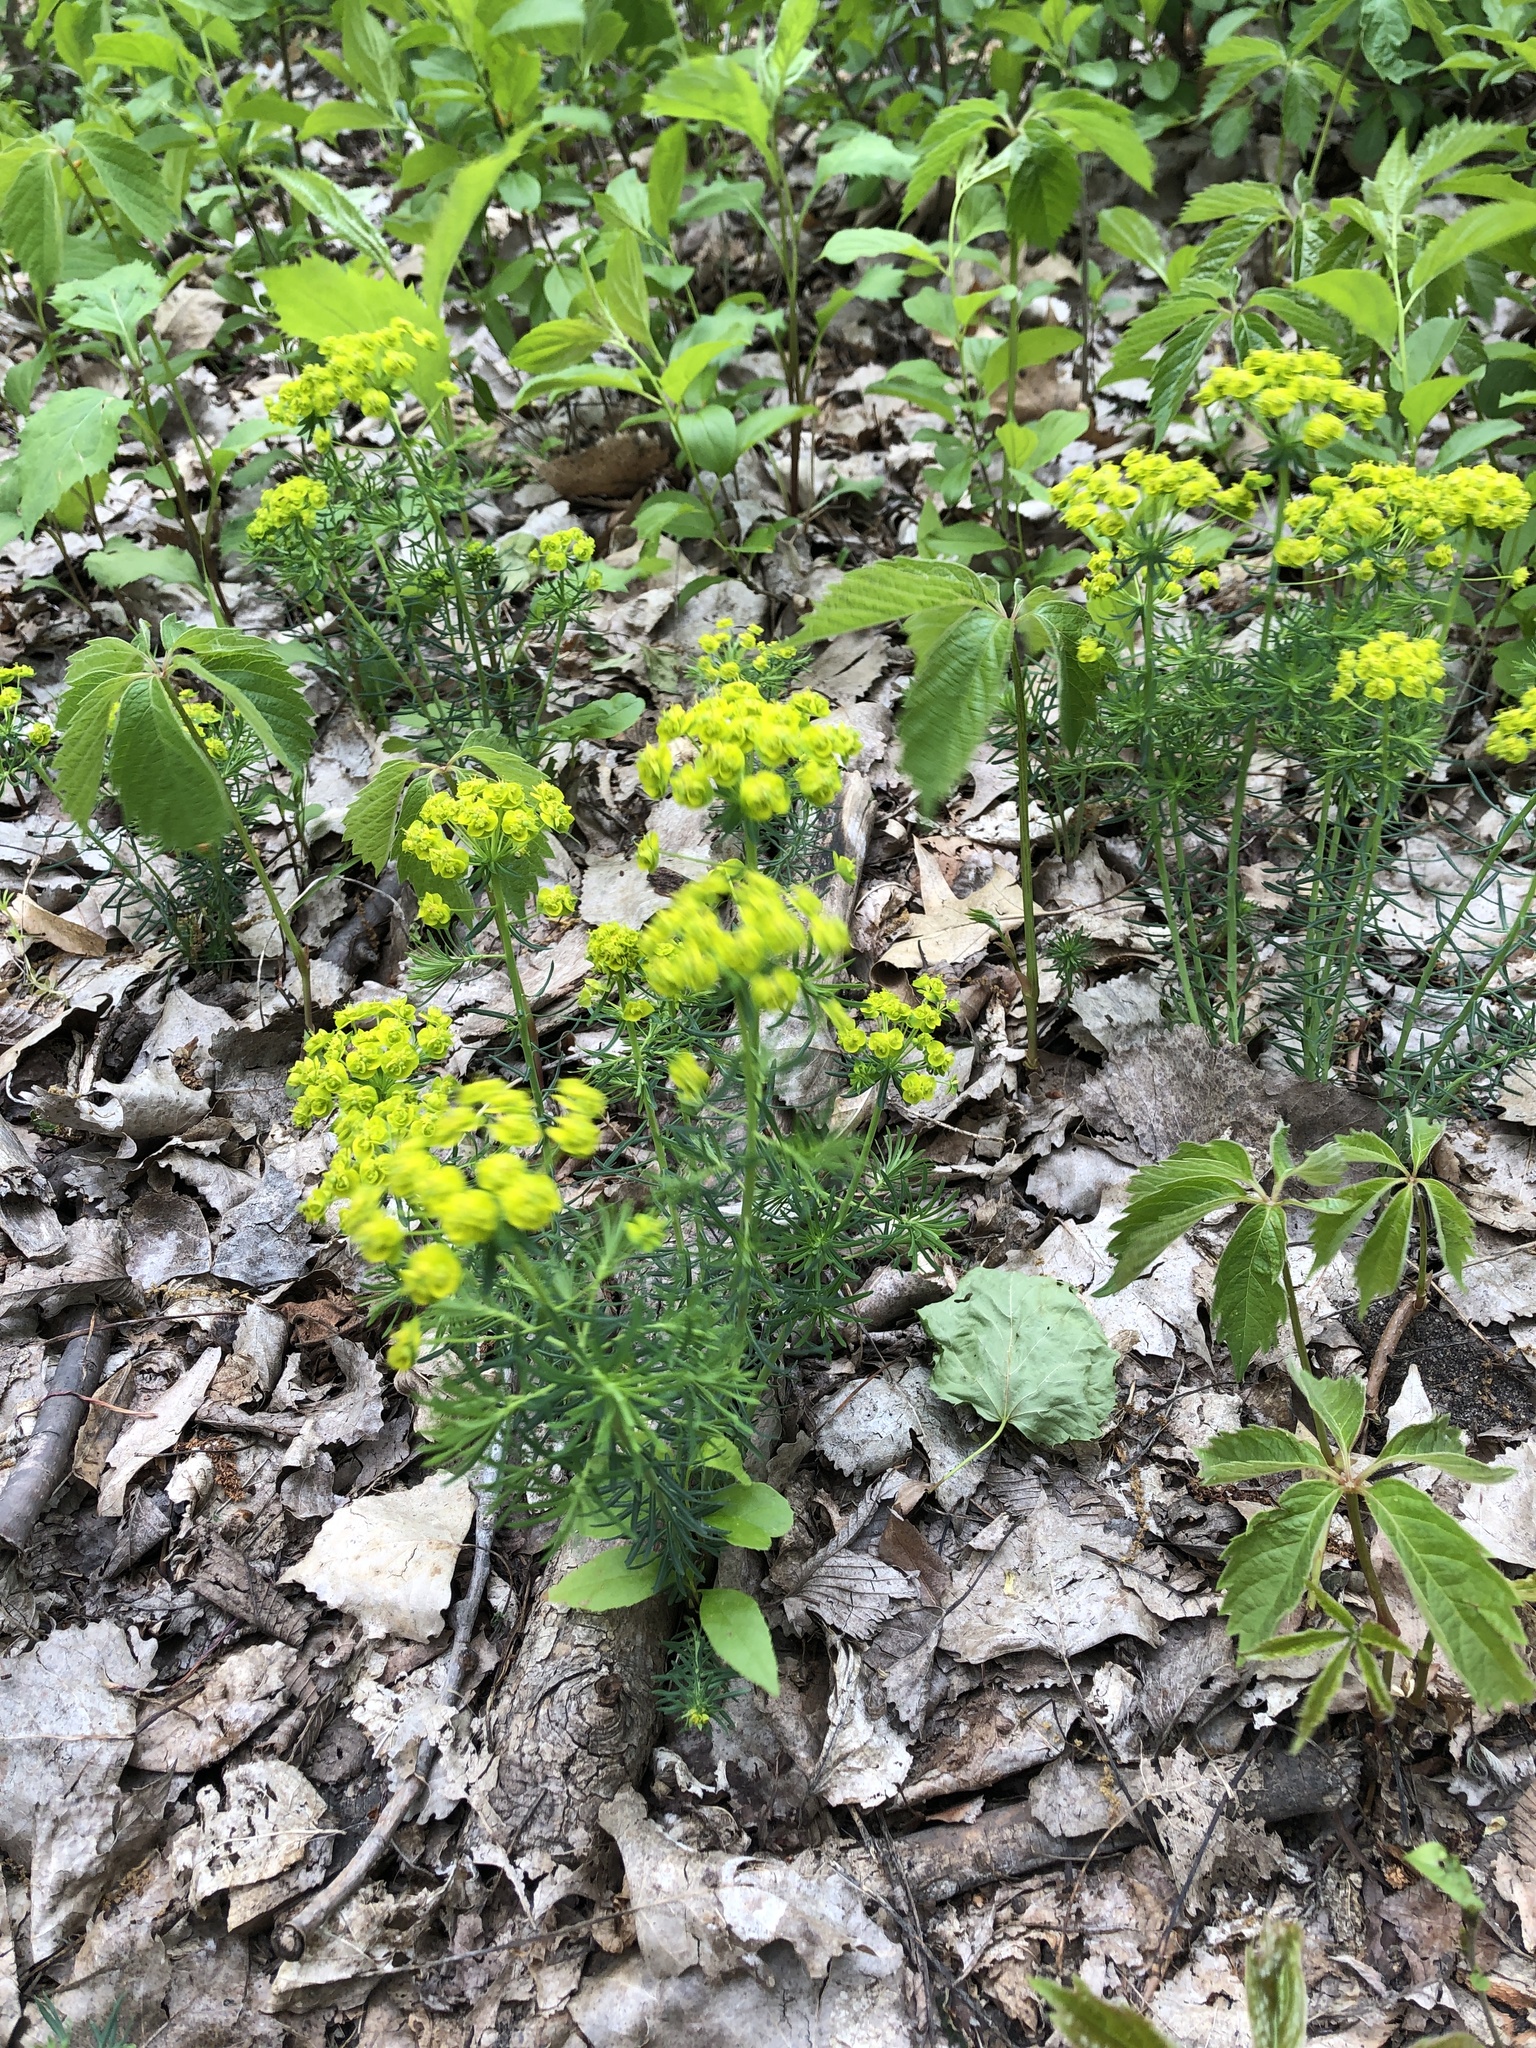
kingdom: Plantae
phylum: Tracheophyta
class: Magnoliopsida
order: Malpighiales
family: Euphorbiaceae
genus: Euphorbia
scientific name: Euphorbia cyparissias
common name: Cypress spurge
